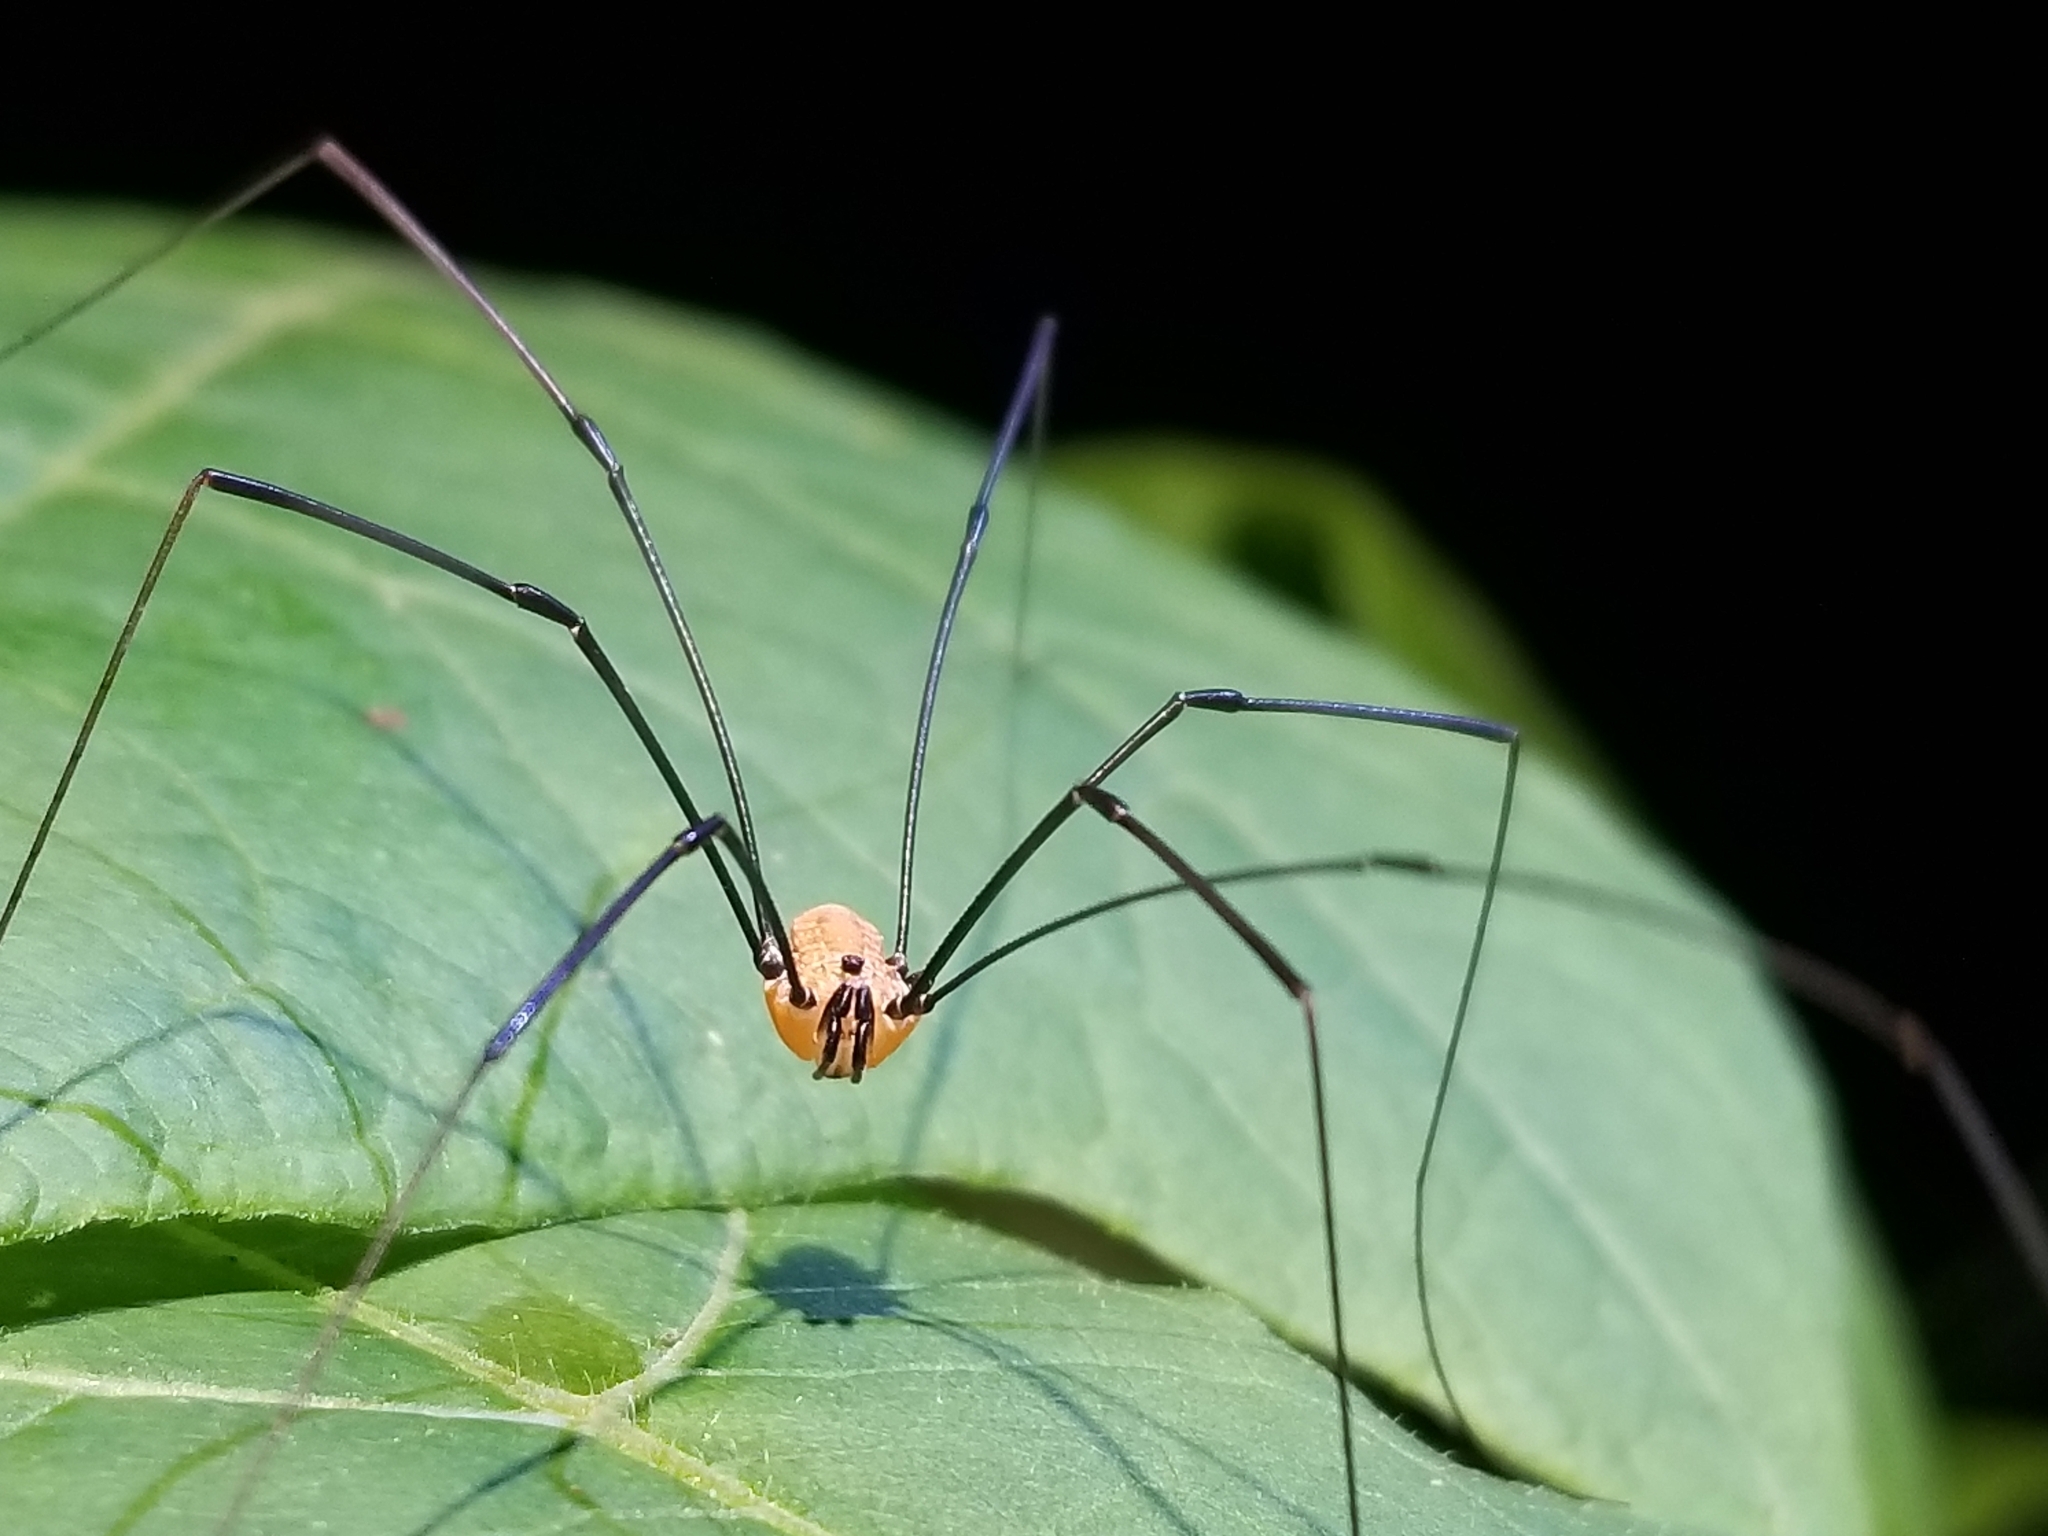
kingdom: Animalia
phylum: Arthropoda
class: Arachnida
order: Opiliones
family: Sclerosomatidae
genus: Leiobunum
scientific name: Leiobunum nigropalpi
